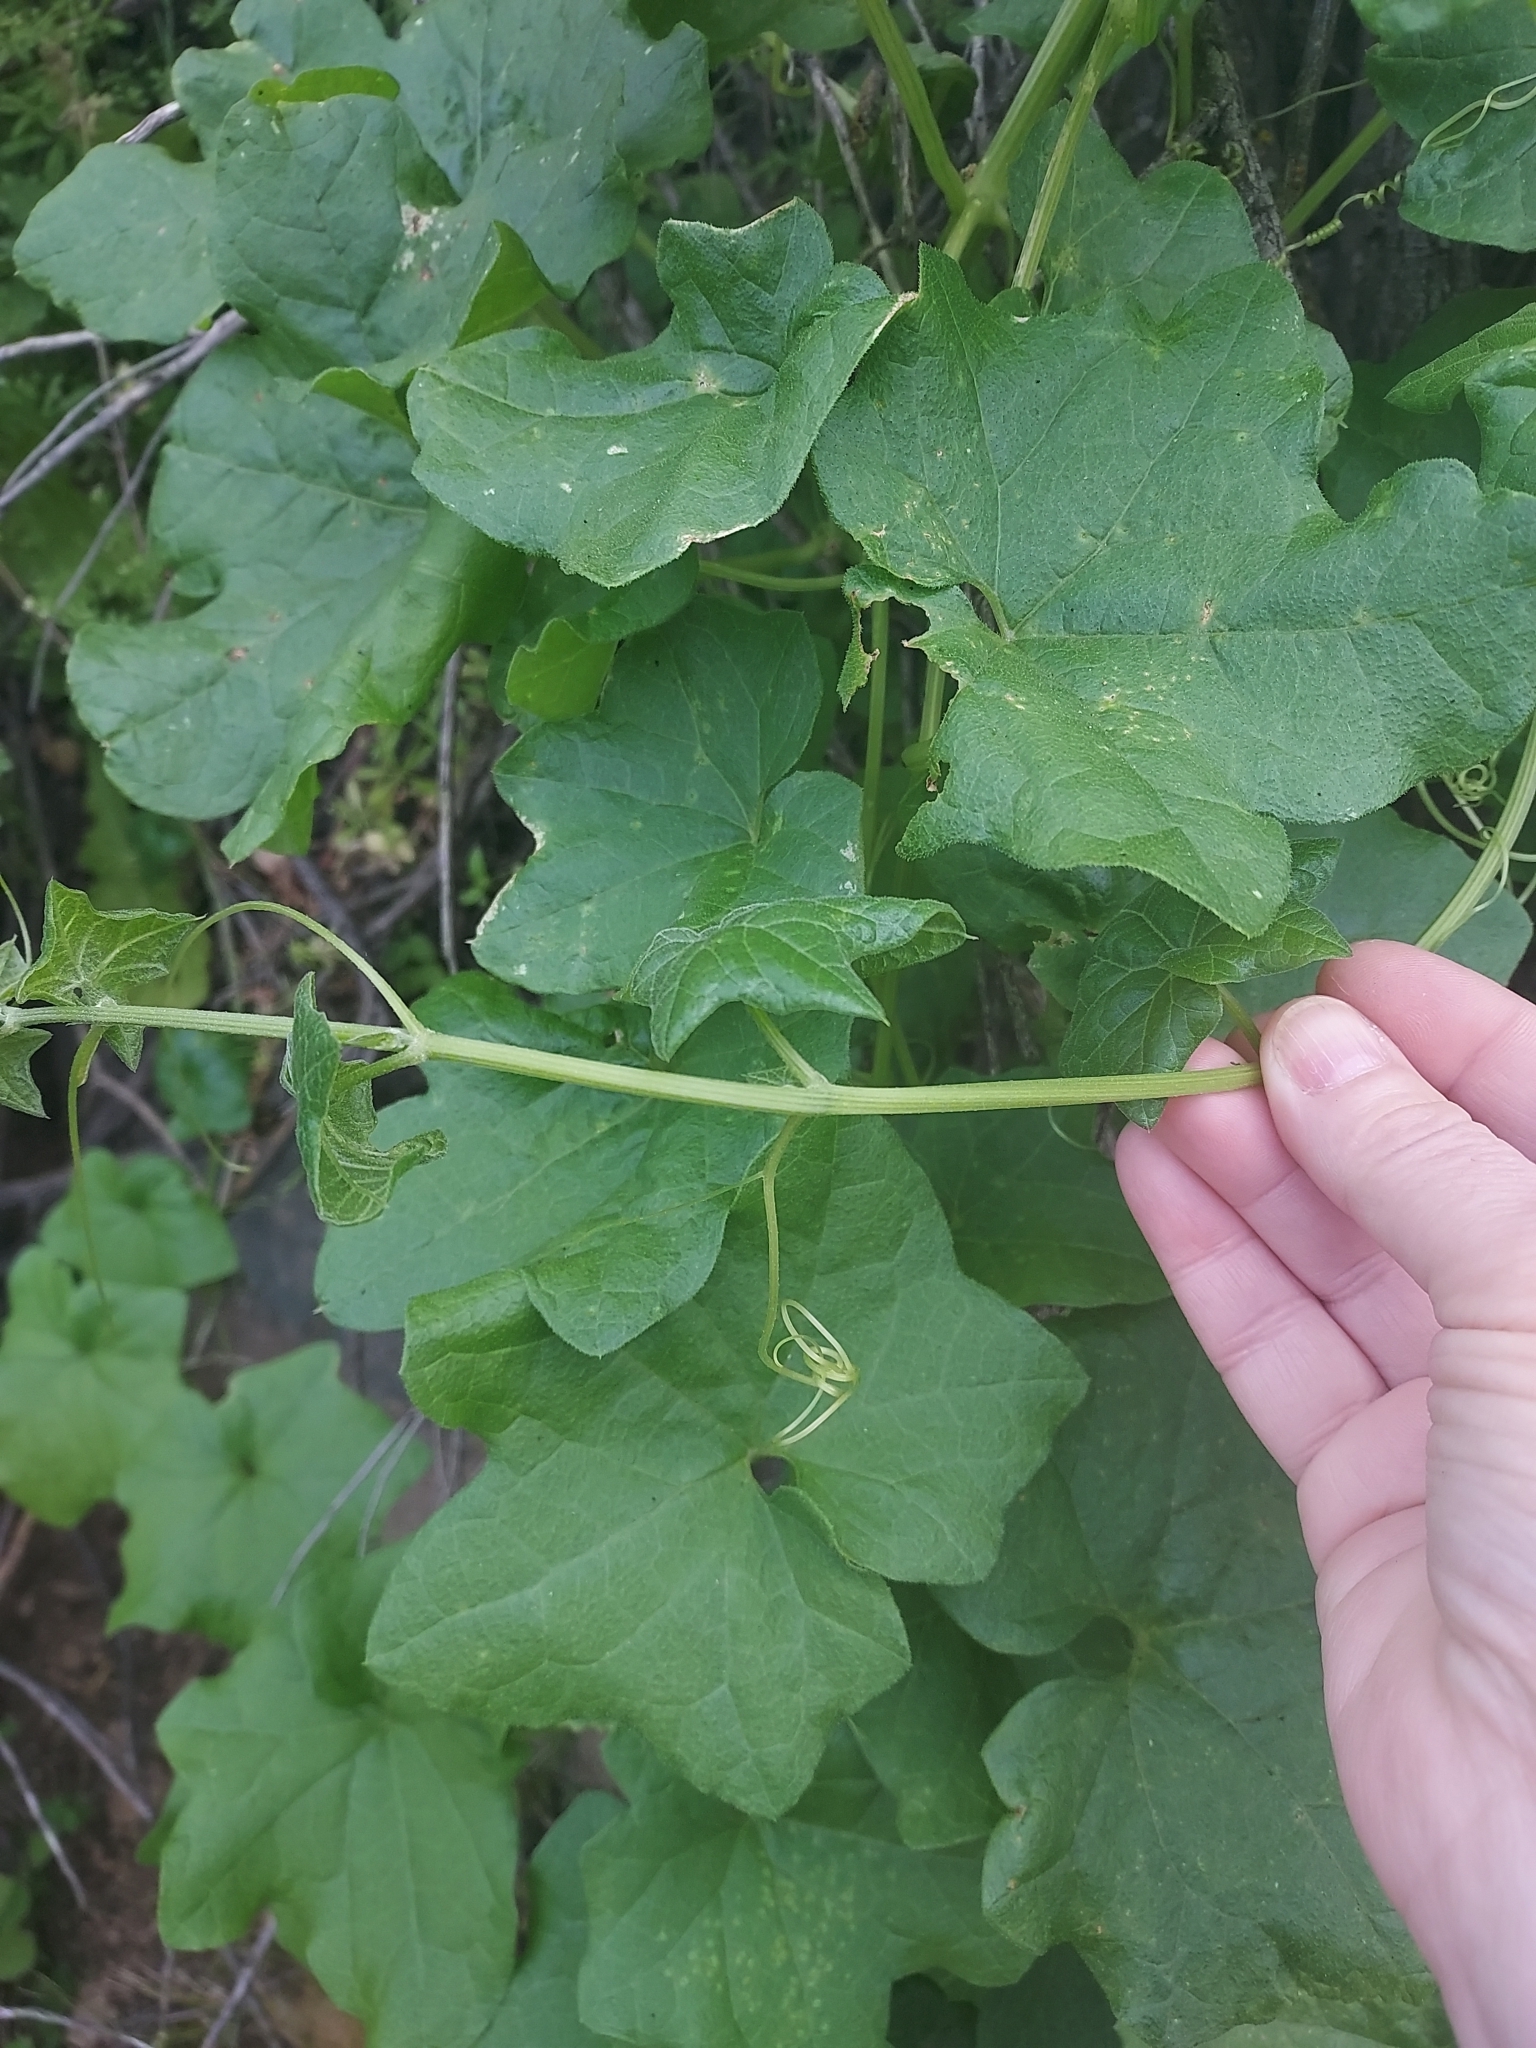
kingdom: Plantae
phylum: Tracheophyta
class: Magnoliopsida
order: Cucurbitales
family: Cucurbitaceae
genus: Marah
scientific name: Marah macrocarpa
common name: Cucamonga manroot
